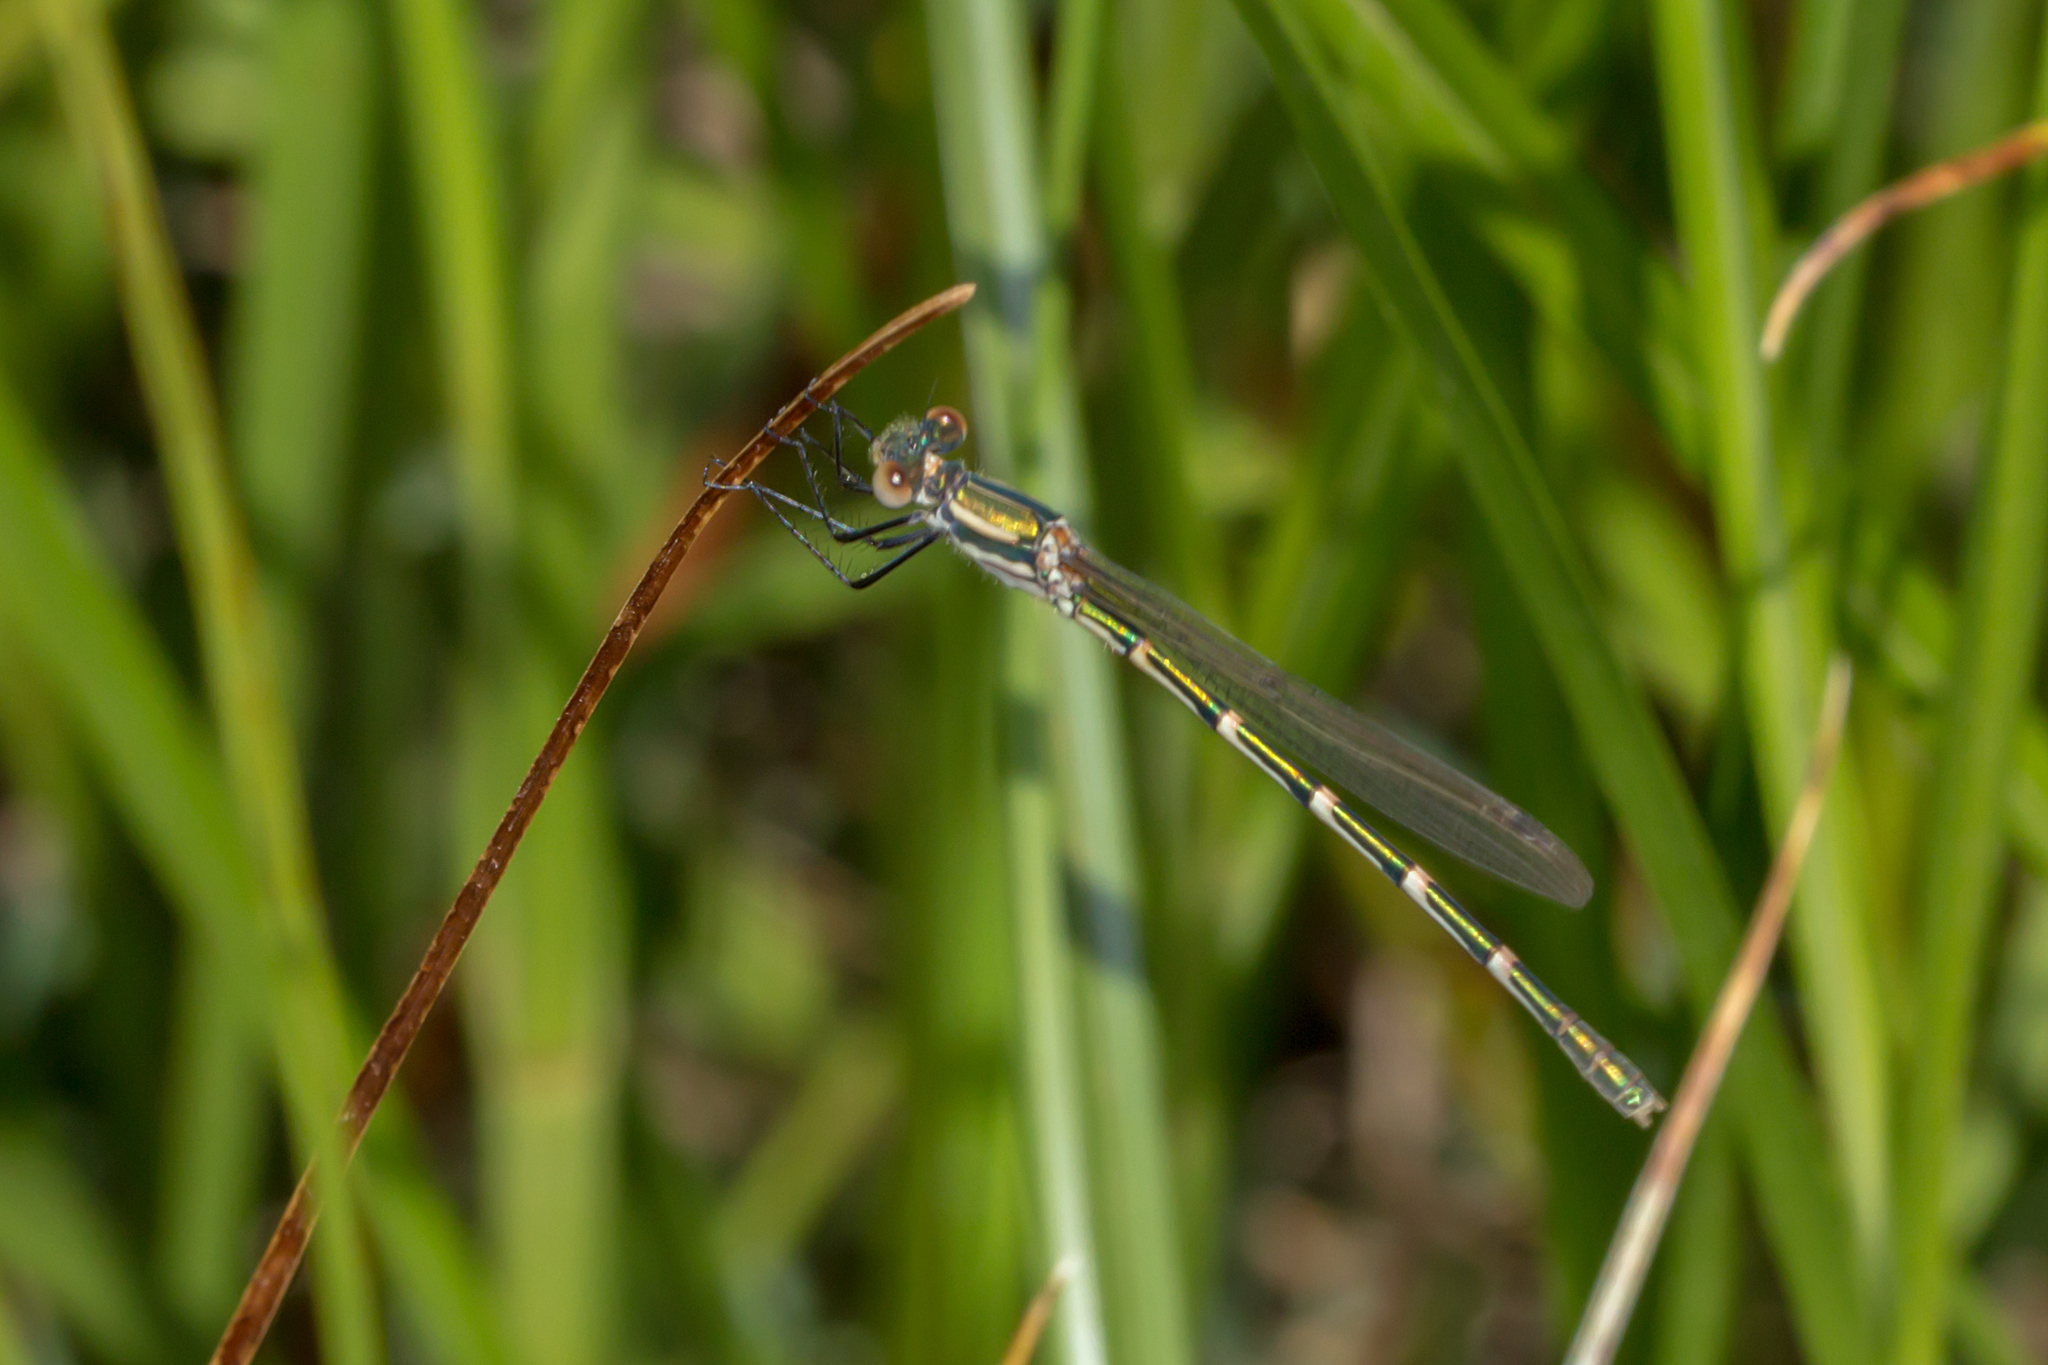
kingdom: Animalia
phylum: Arthropoda
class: Insecta
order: Odonata
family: Lestidae
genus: Austrolestes
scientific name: Austrolestes annulosus
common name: Blue ringtail
